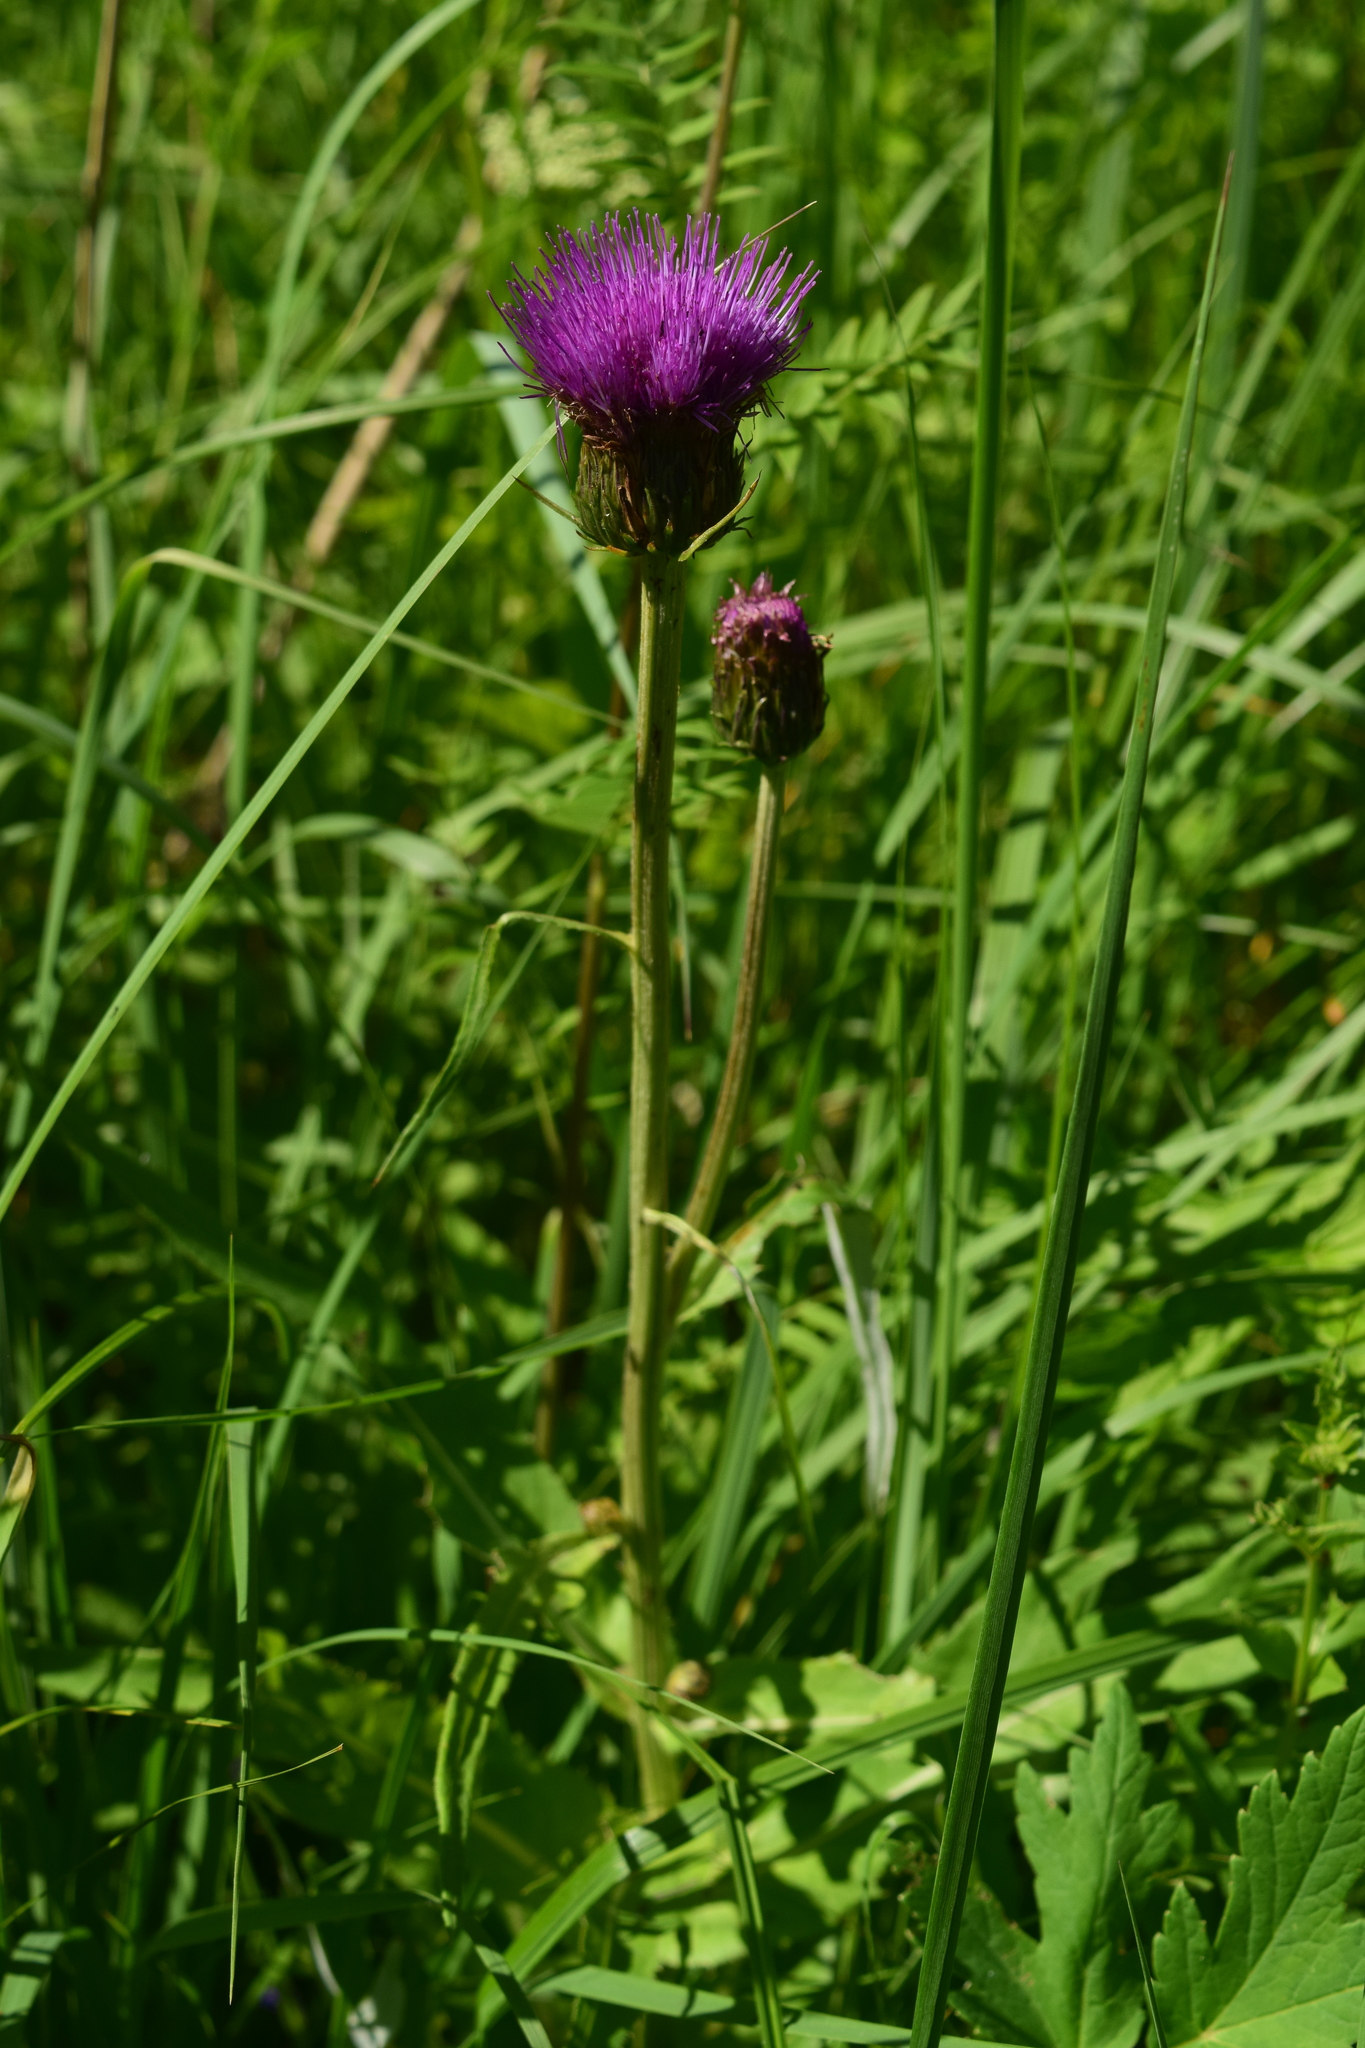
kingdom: Plantae
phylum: Tracheophyta
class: Magnoliopsida
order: Asterales
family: Asteraceae
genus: Cirsium
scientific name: Cirsium heterophyllum
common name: Melancholy thistle
